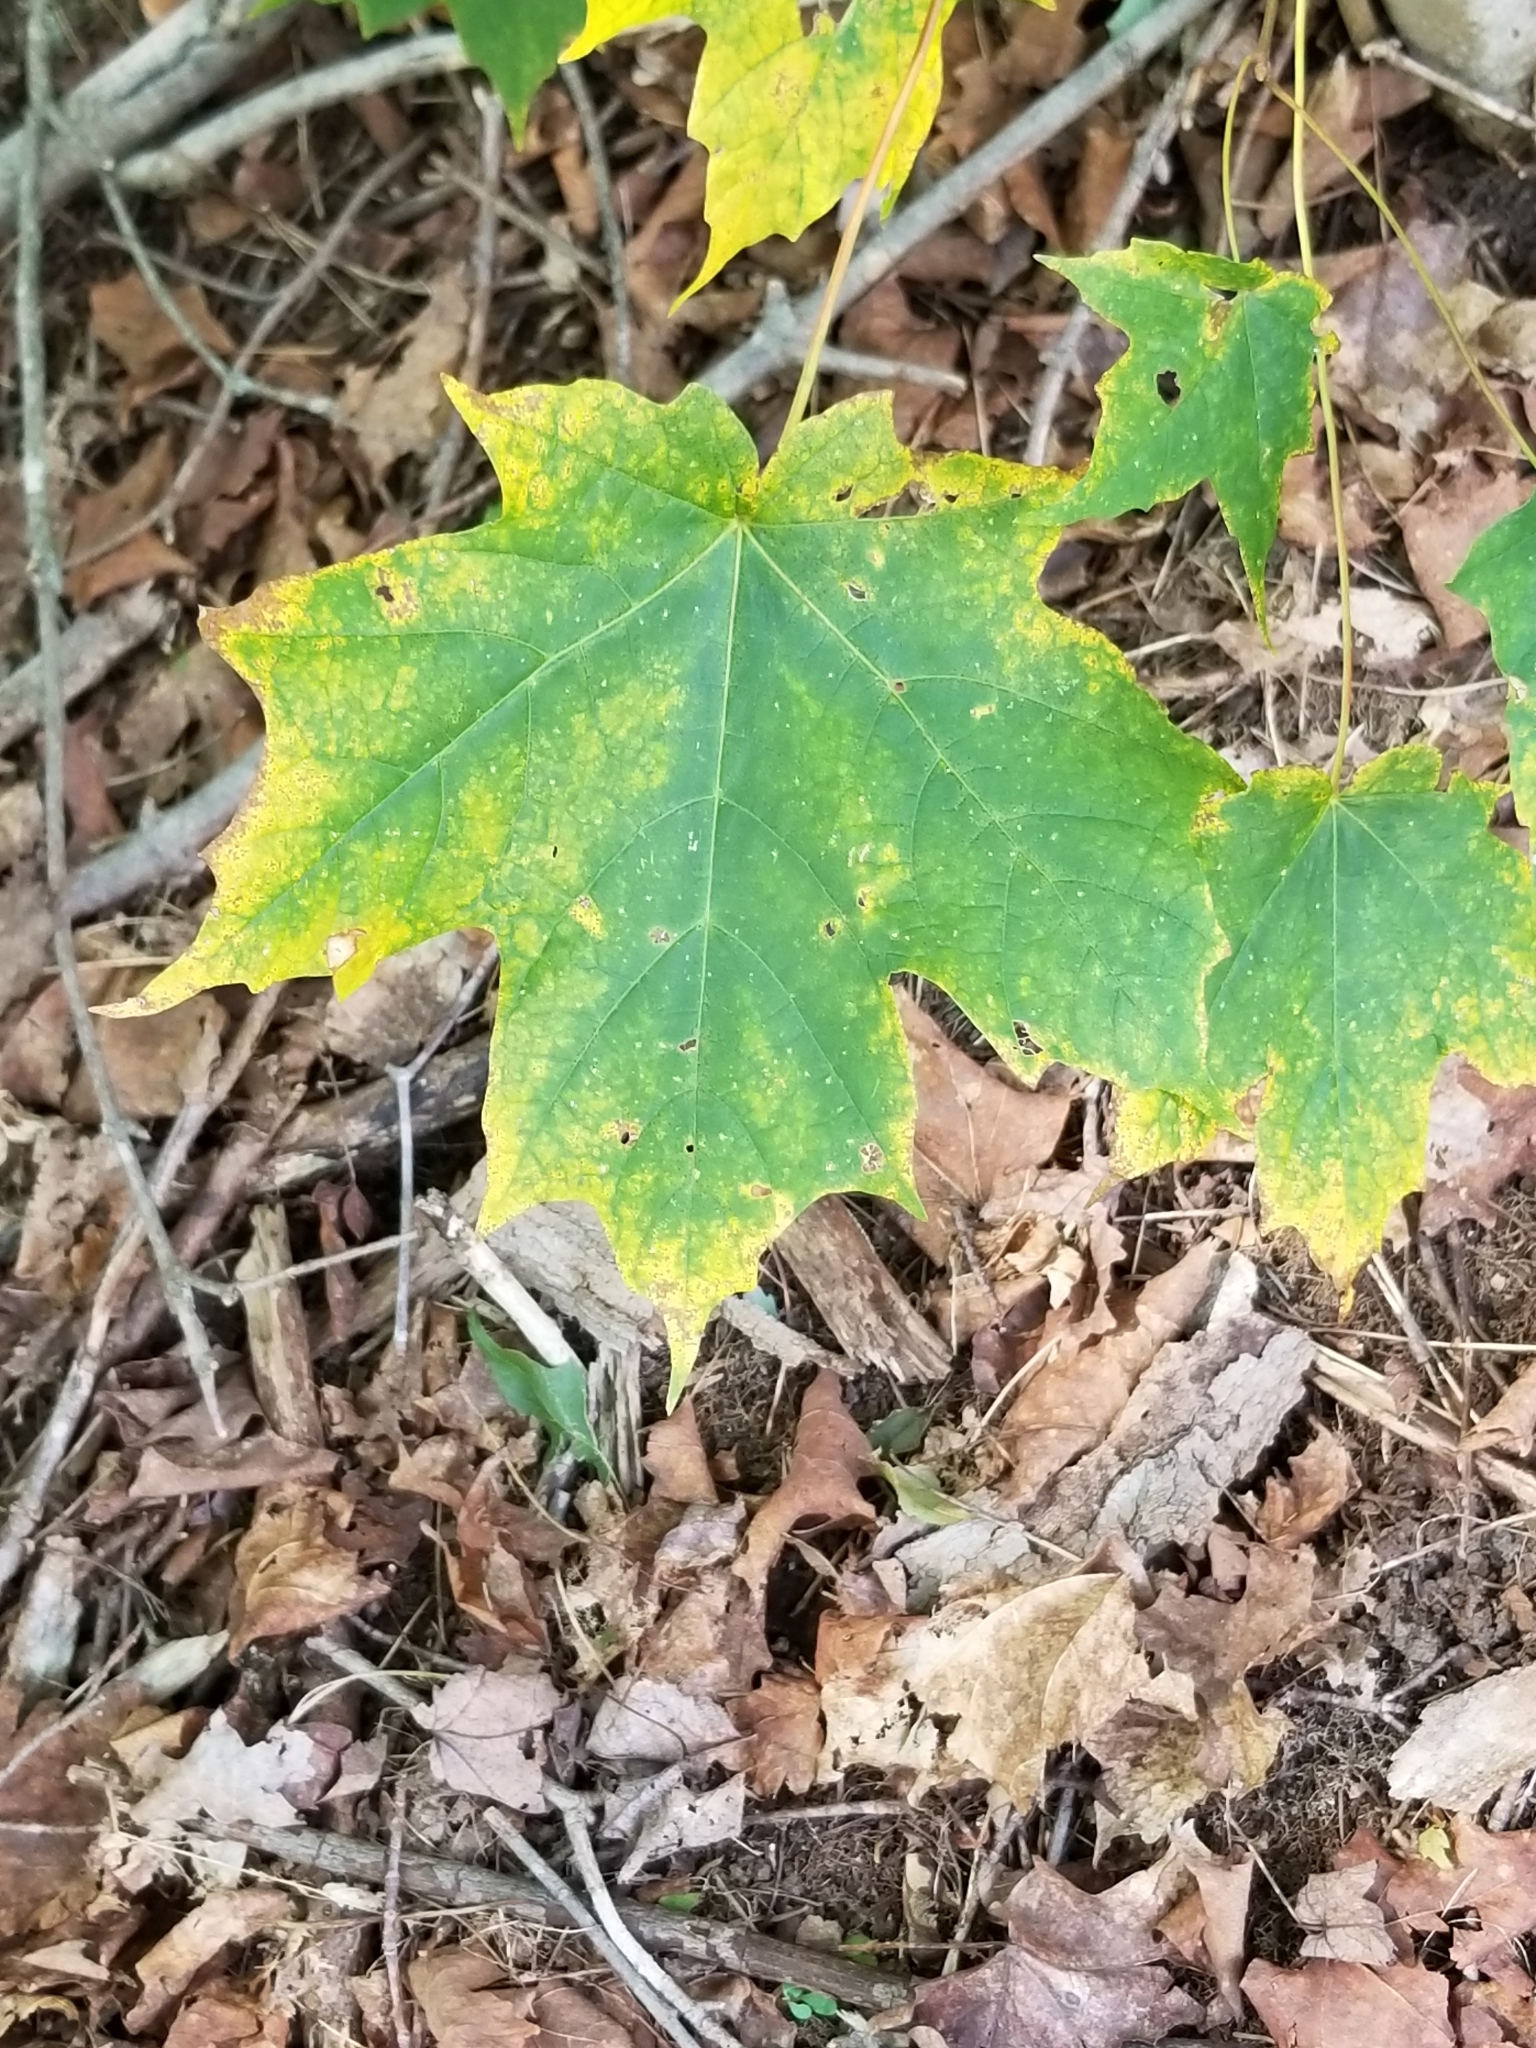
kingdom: Plantae
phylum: Tracheophyta
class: Magnoliopsida
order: Sapindales
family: Sapindaceae
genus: Acer
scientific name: Acer saccharum
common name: Sugar maple
